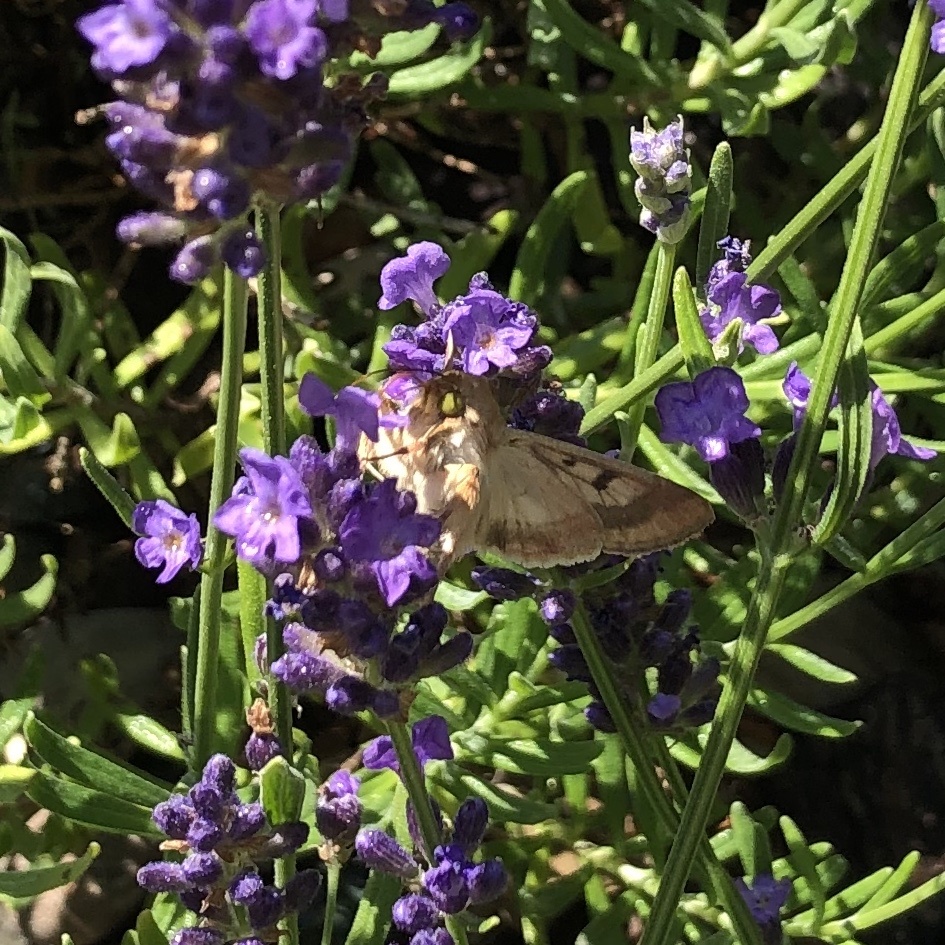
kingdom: Animalia
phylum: Arthropoda
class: Insecta
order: Lepidoptera
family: Noctuidae
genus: Helicoverpa
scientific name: Helicoverpa zea
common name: Bollworm
